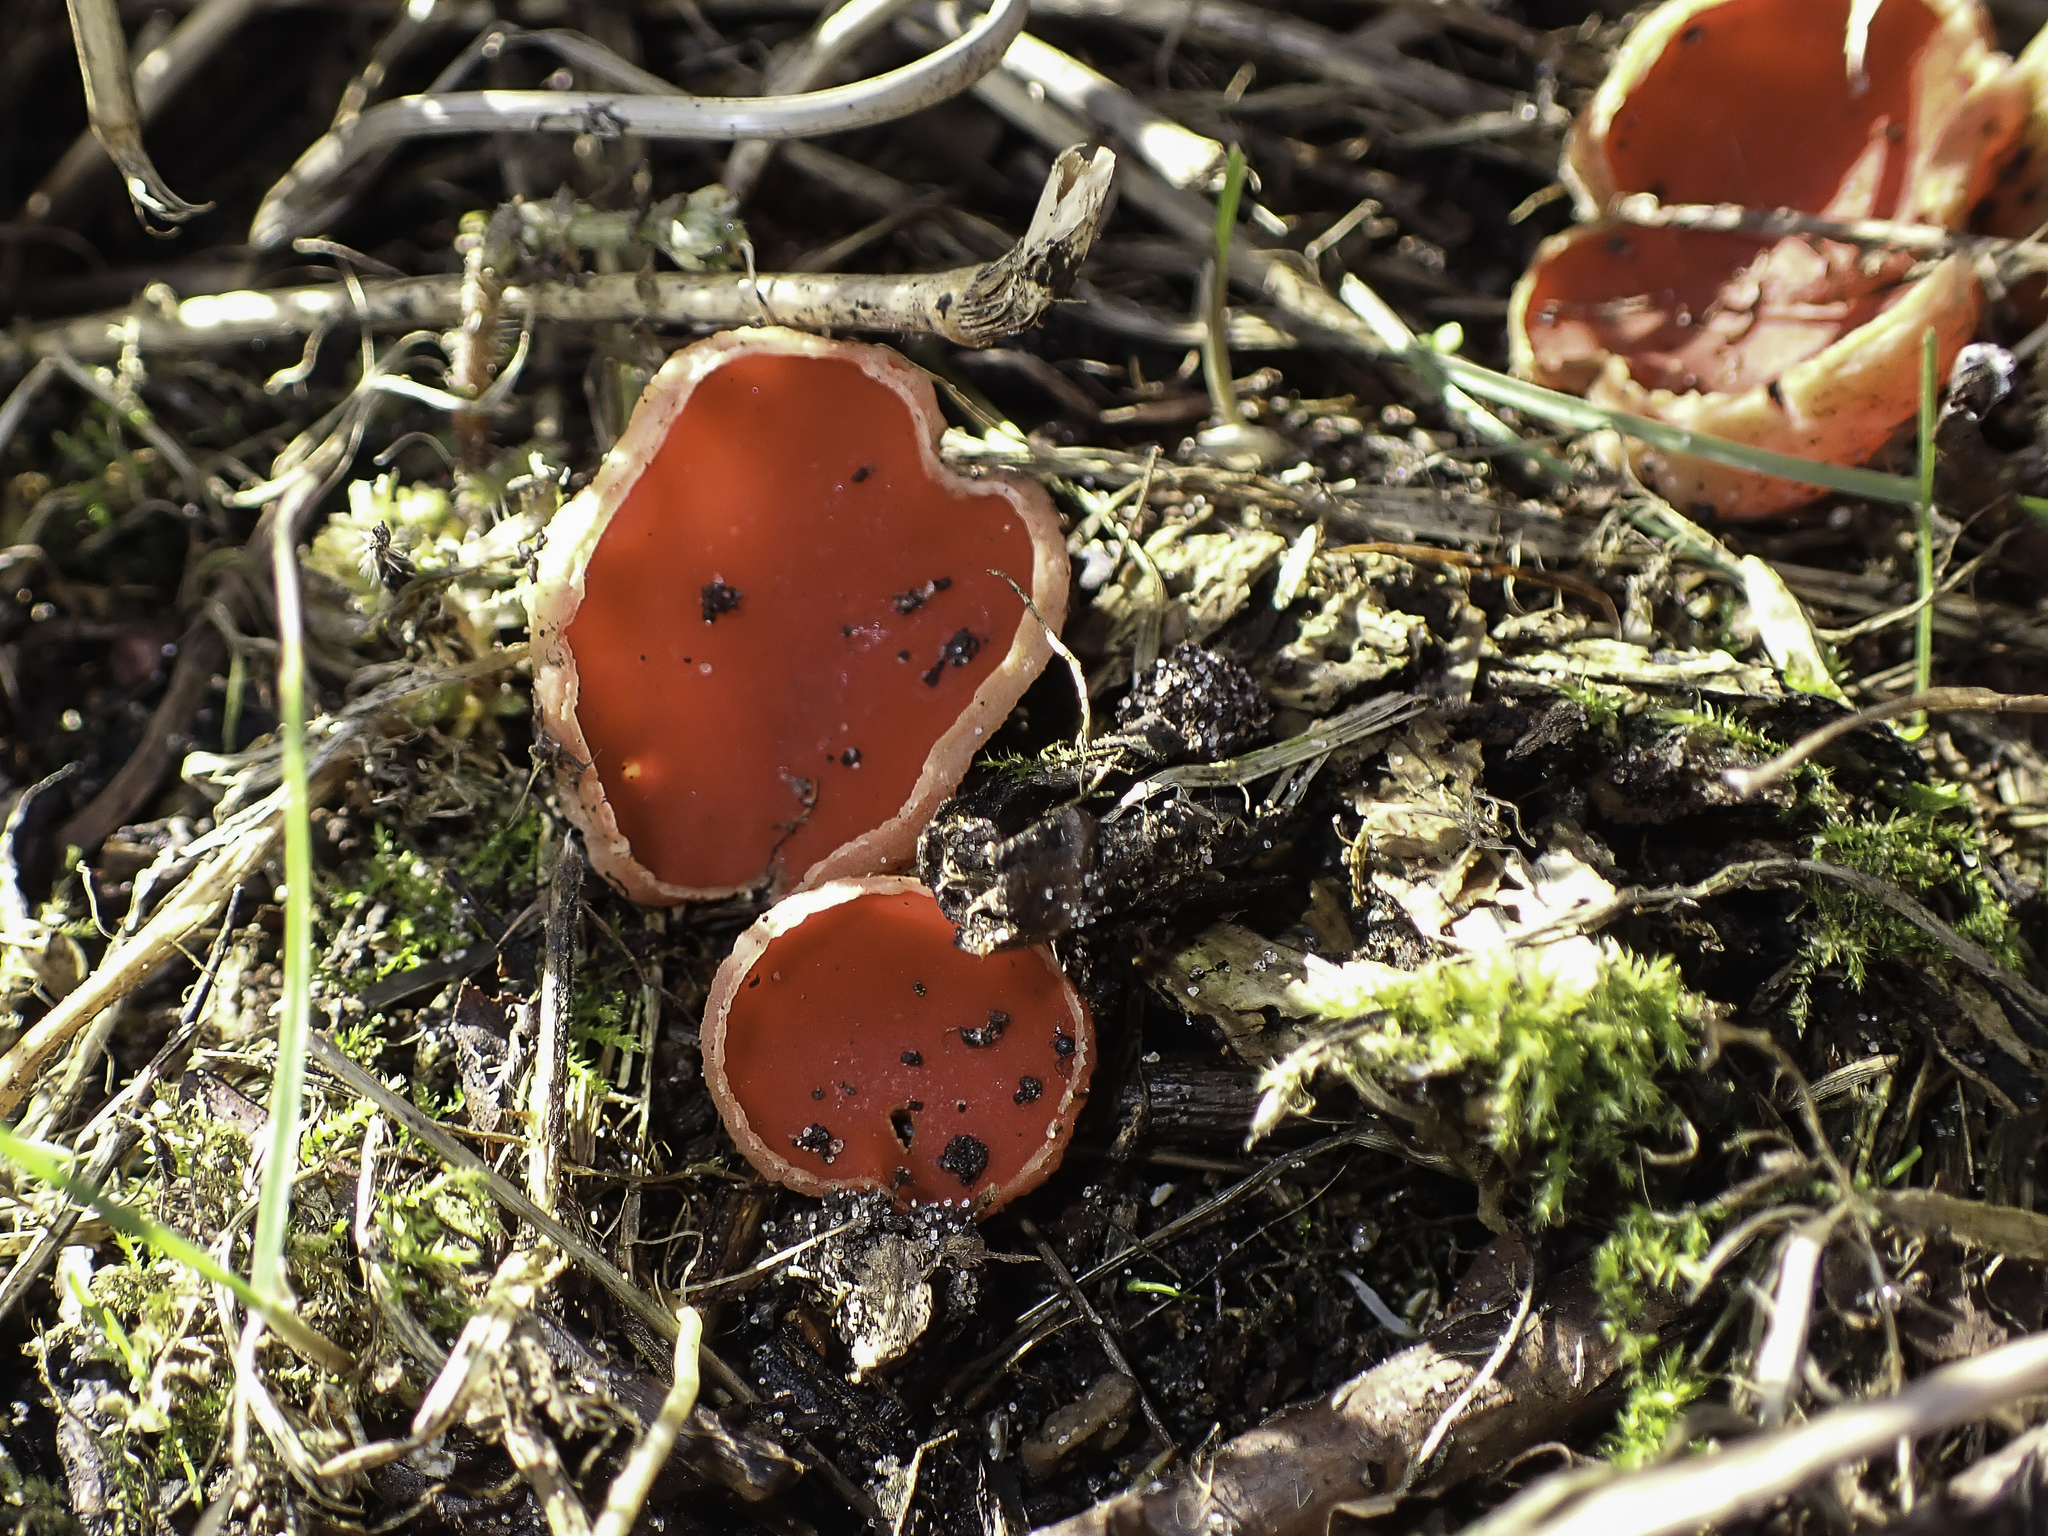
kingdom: Fungi
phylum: Ascomycota
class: Pezizomycetes
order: Pezizales
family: Sarcoscyphaceae
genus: Sarcoscypha
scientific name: Sarcoscypha
